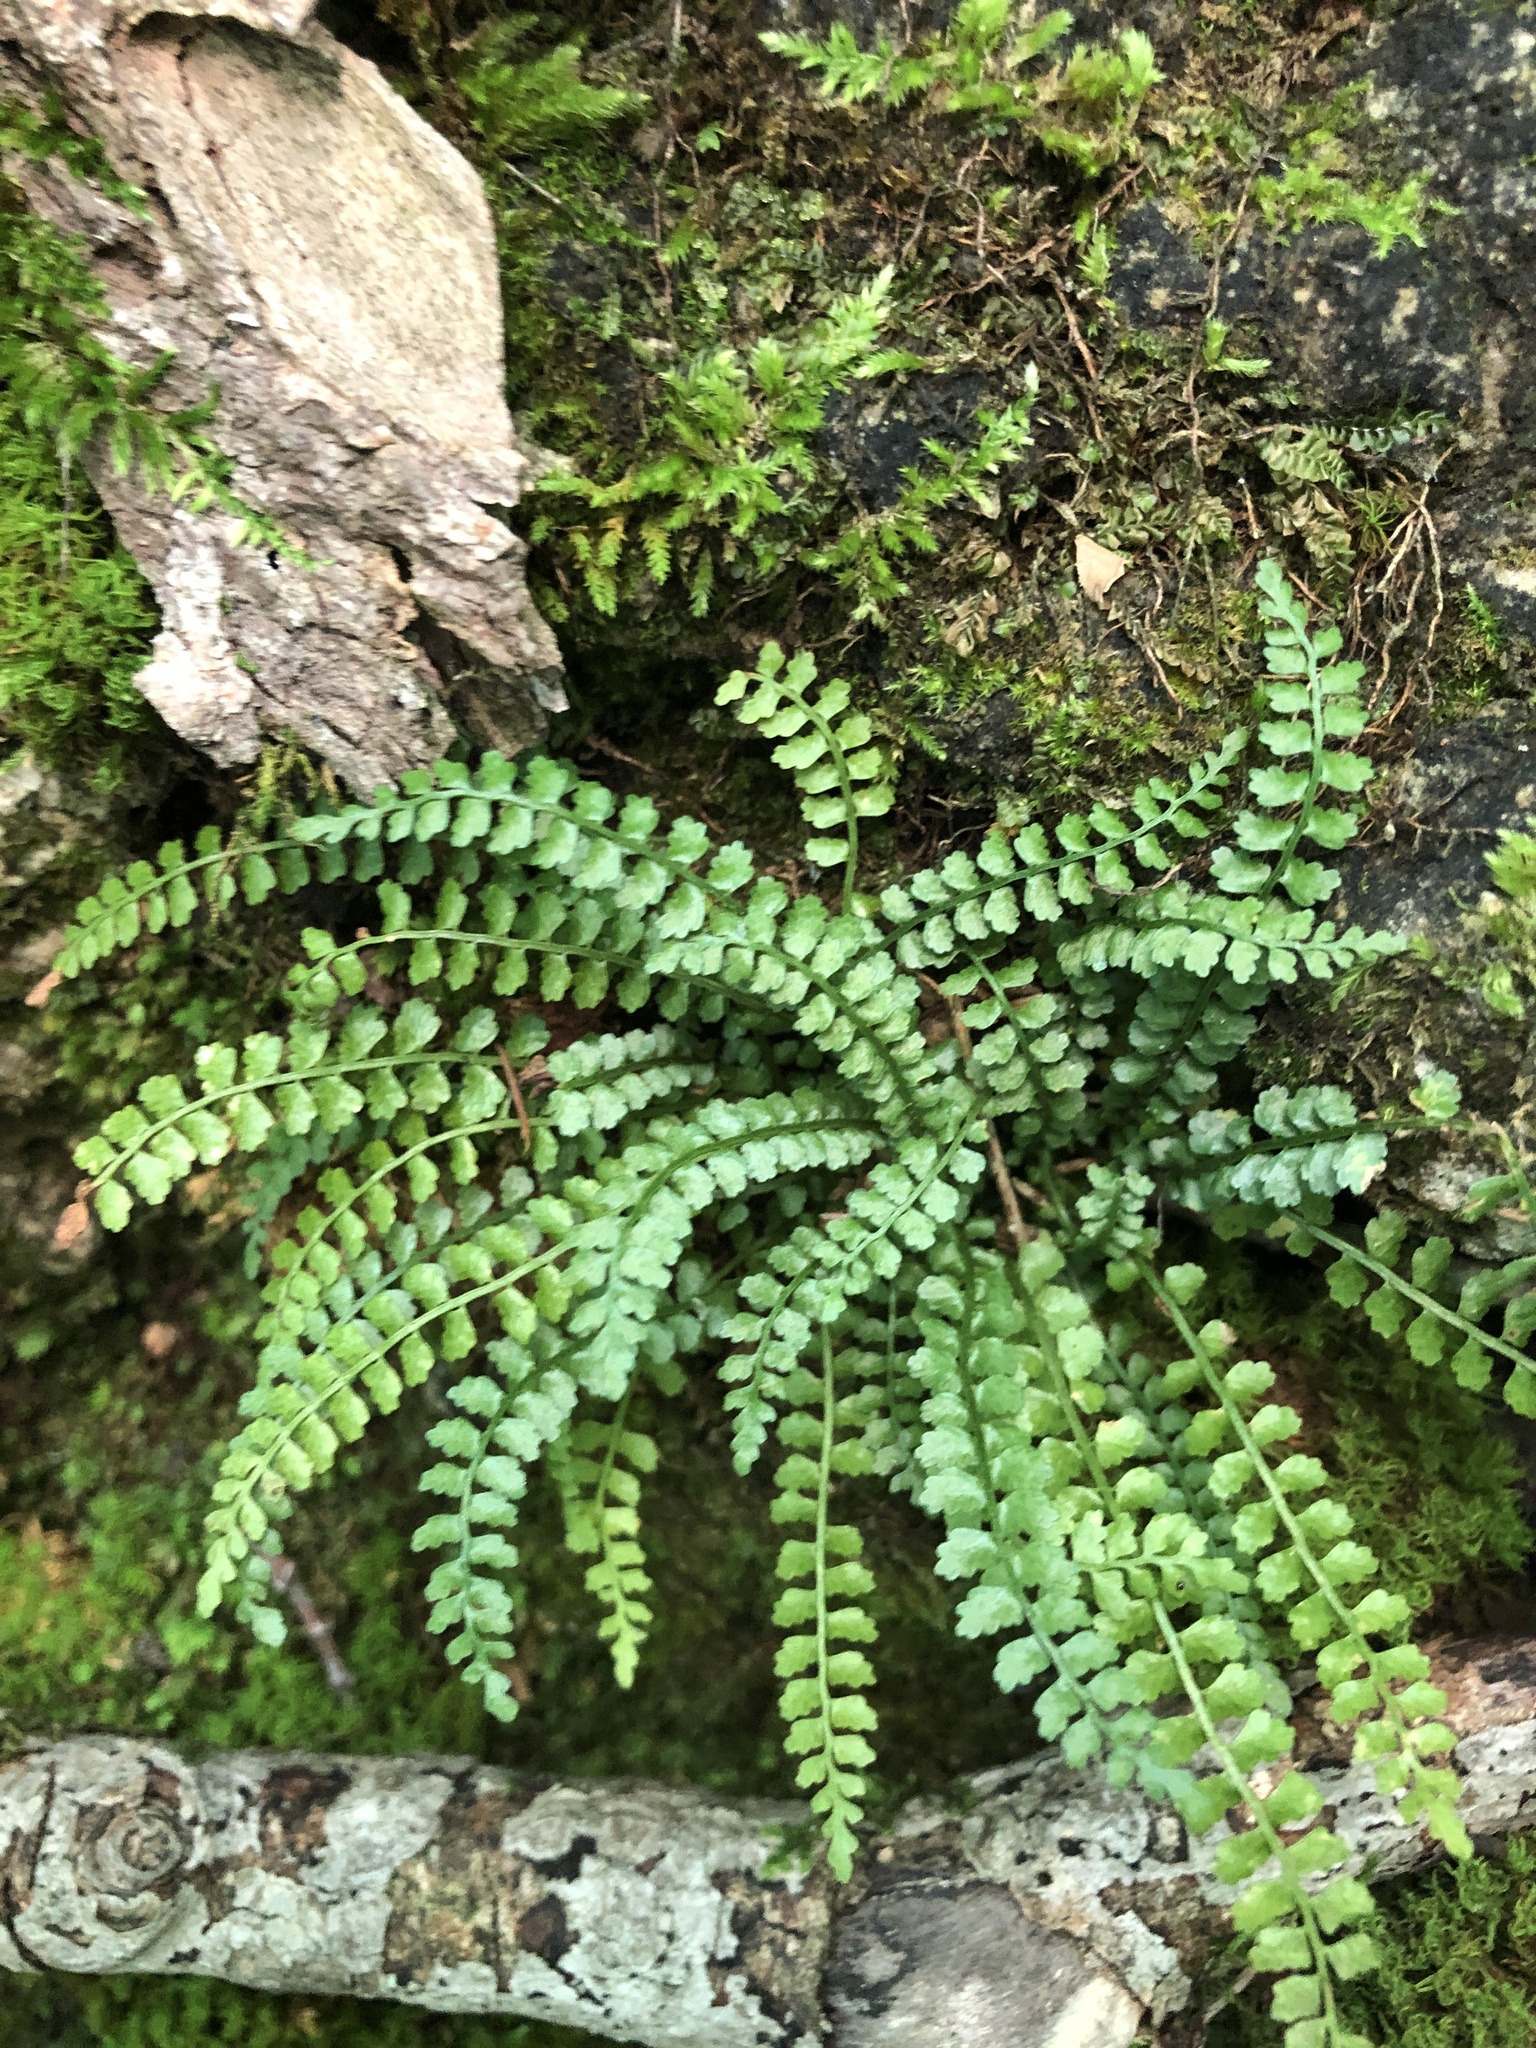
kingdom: Plantae
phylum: Tracheophyta
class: Polypodiopsida
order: Polypodiales
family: Aspleniaceae
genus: Asplenium
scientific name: Asplenium viride
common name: Green spleenwort
